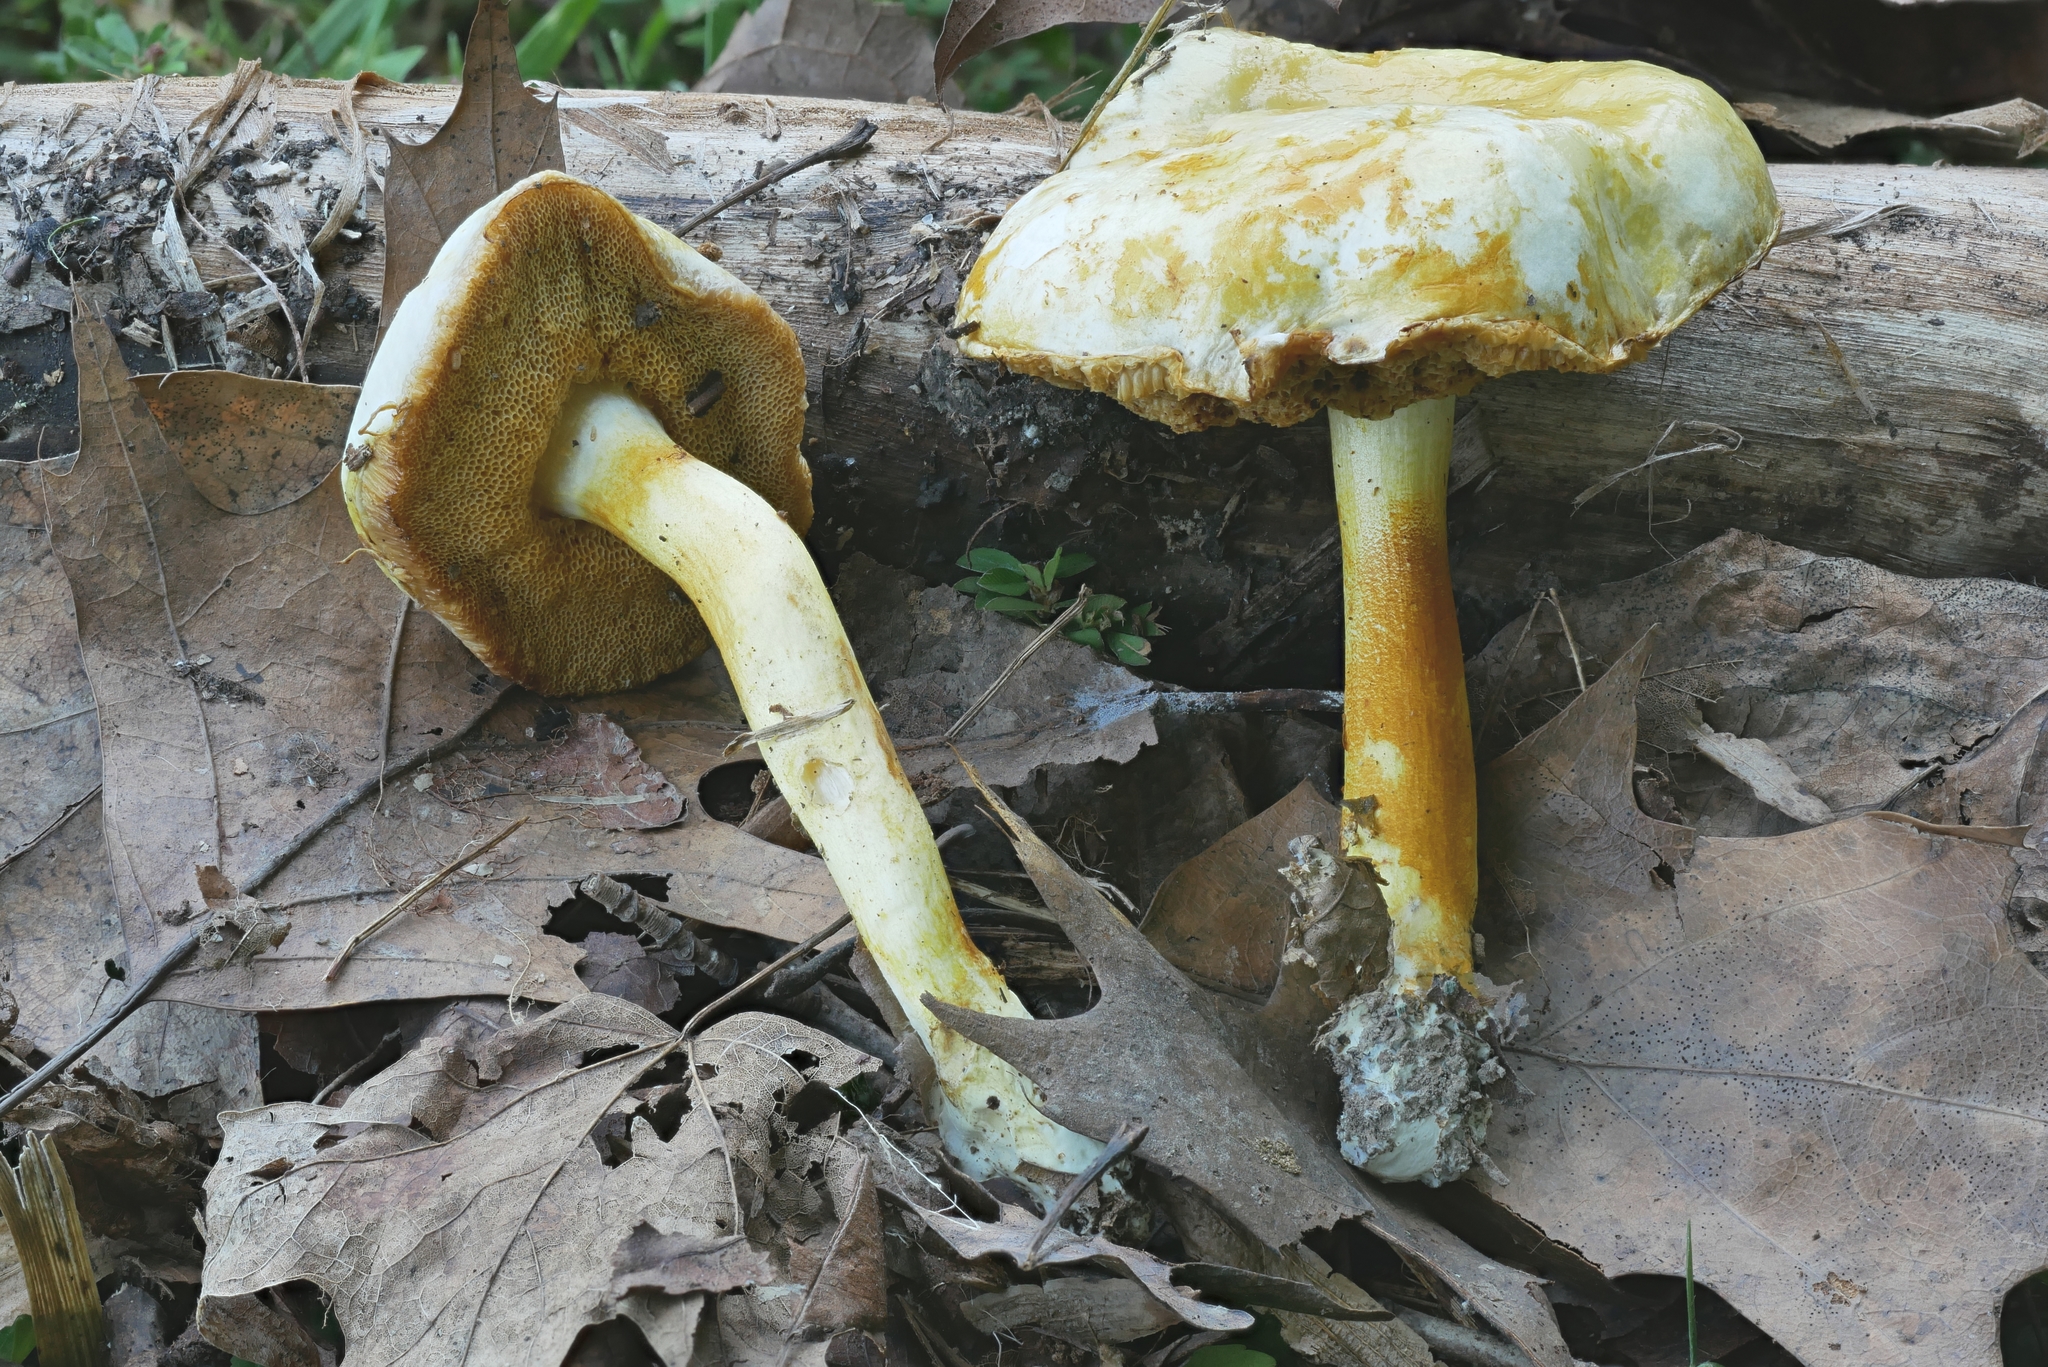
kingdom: Fungi
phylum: Basidiomycota
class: Agaricomycetes
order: Boletales
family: Boletaceae
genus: Pulveroboletus
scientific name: Pulveroboletus curtisii
